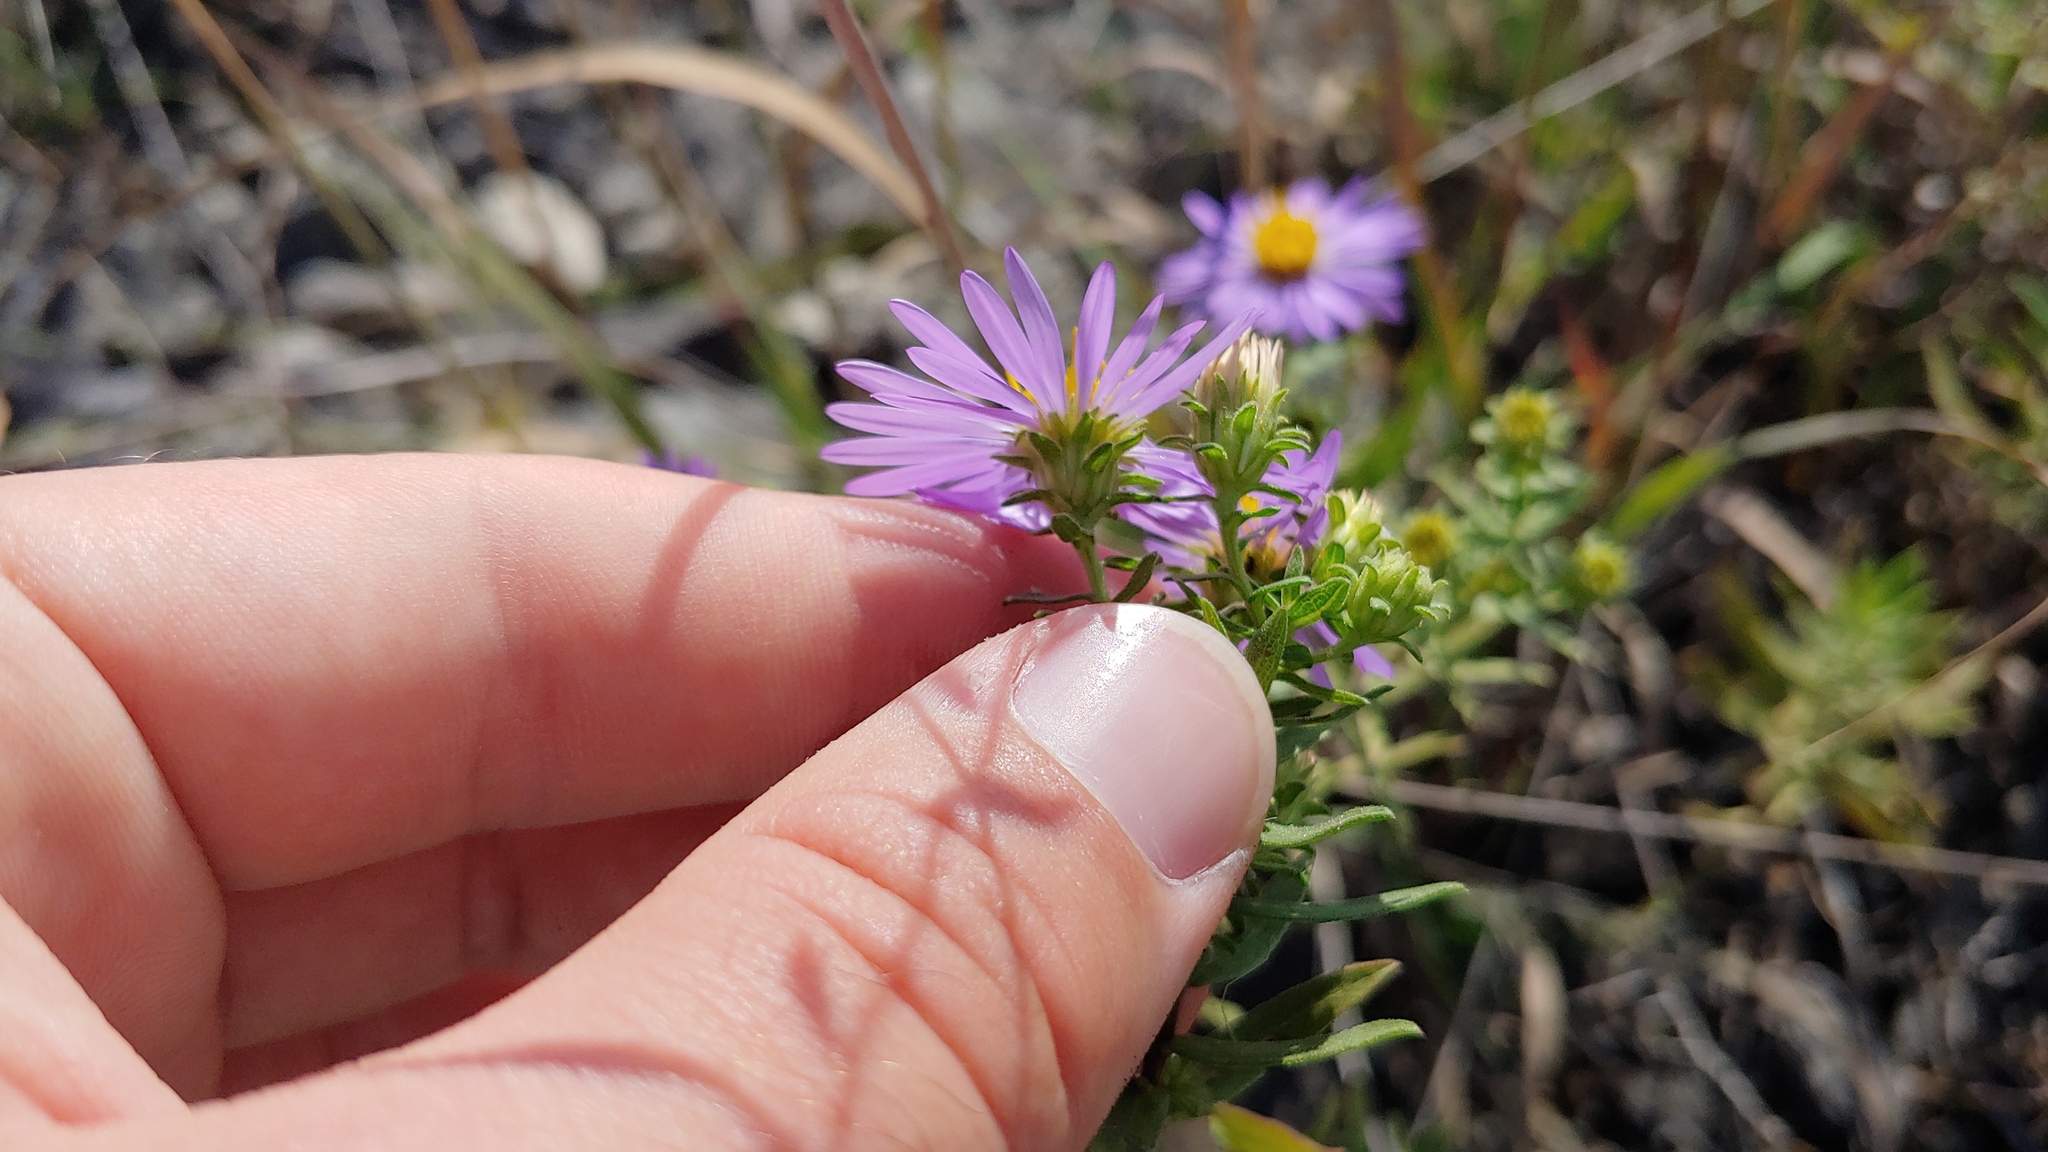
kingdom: Plantae
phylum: Tracheophyta
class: Magnoliopsida
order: Asterales
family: Asteraceae
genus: Symphyotrichum
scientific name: Symphyotrichum oblongifolium
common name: Aromatic aster
